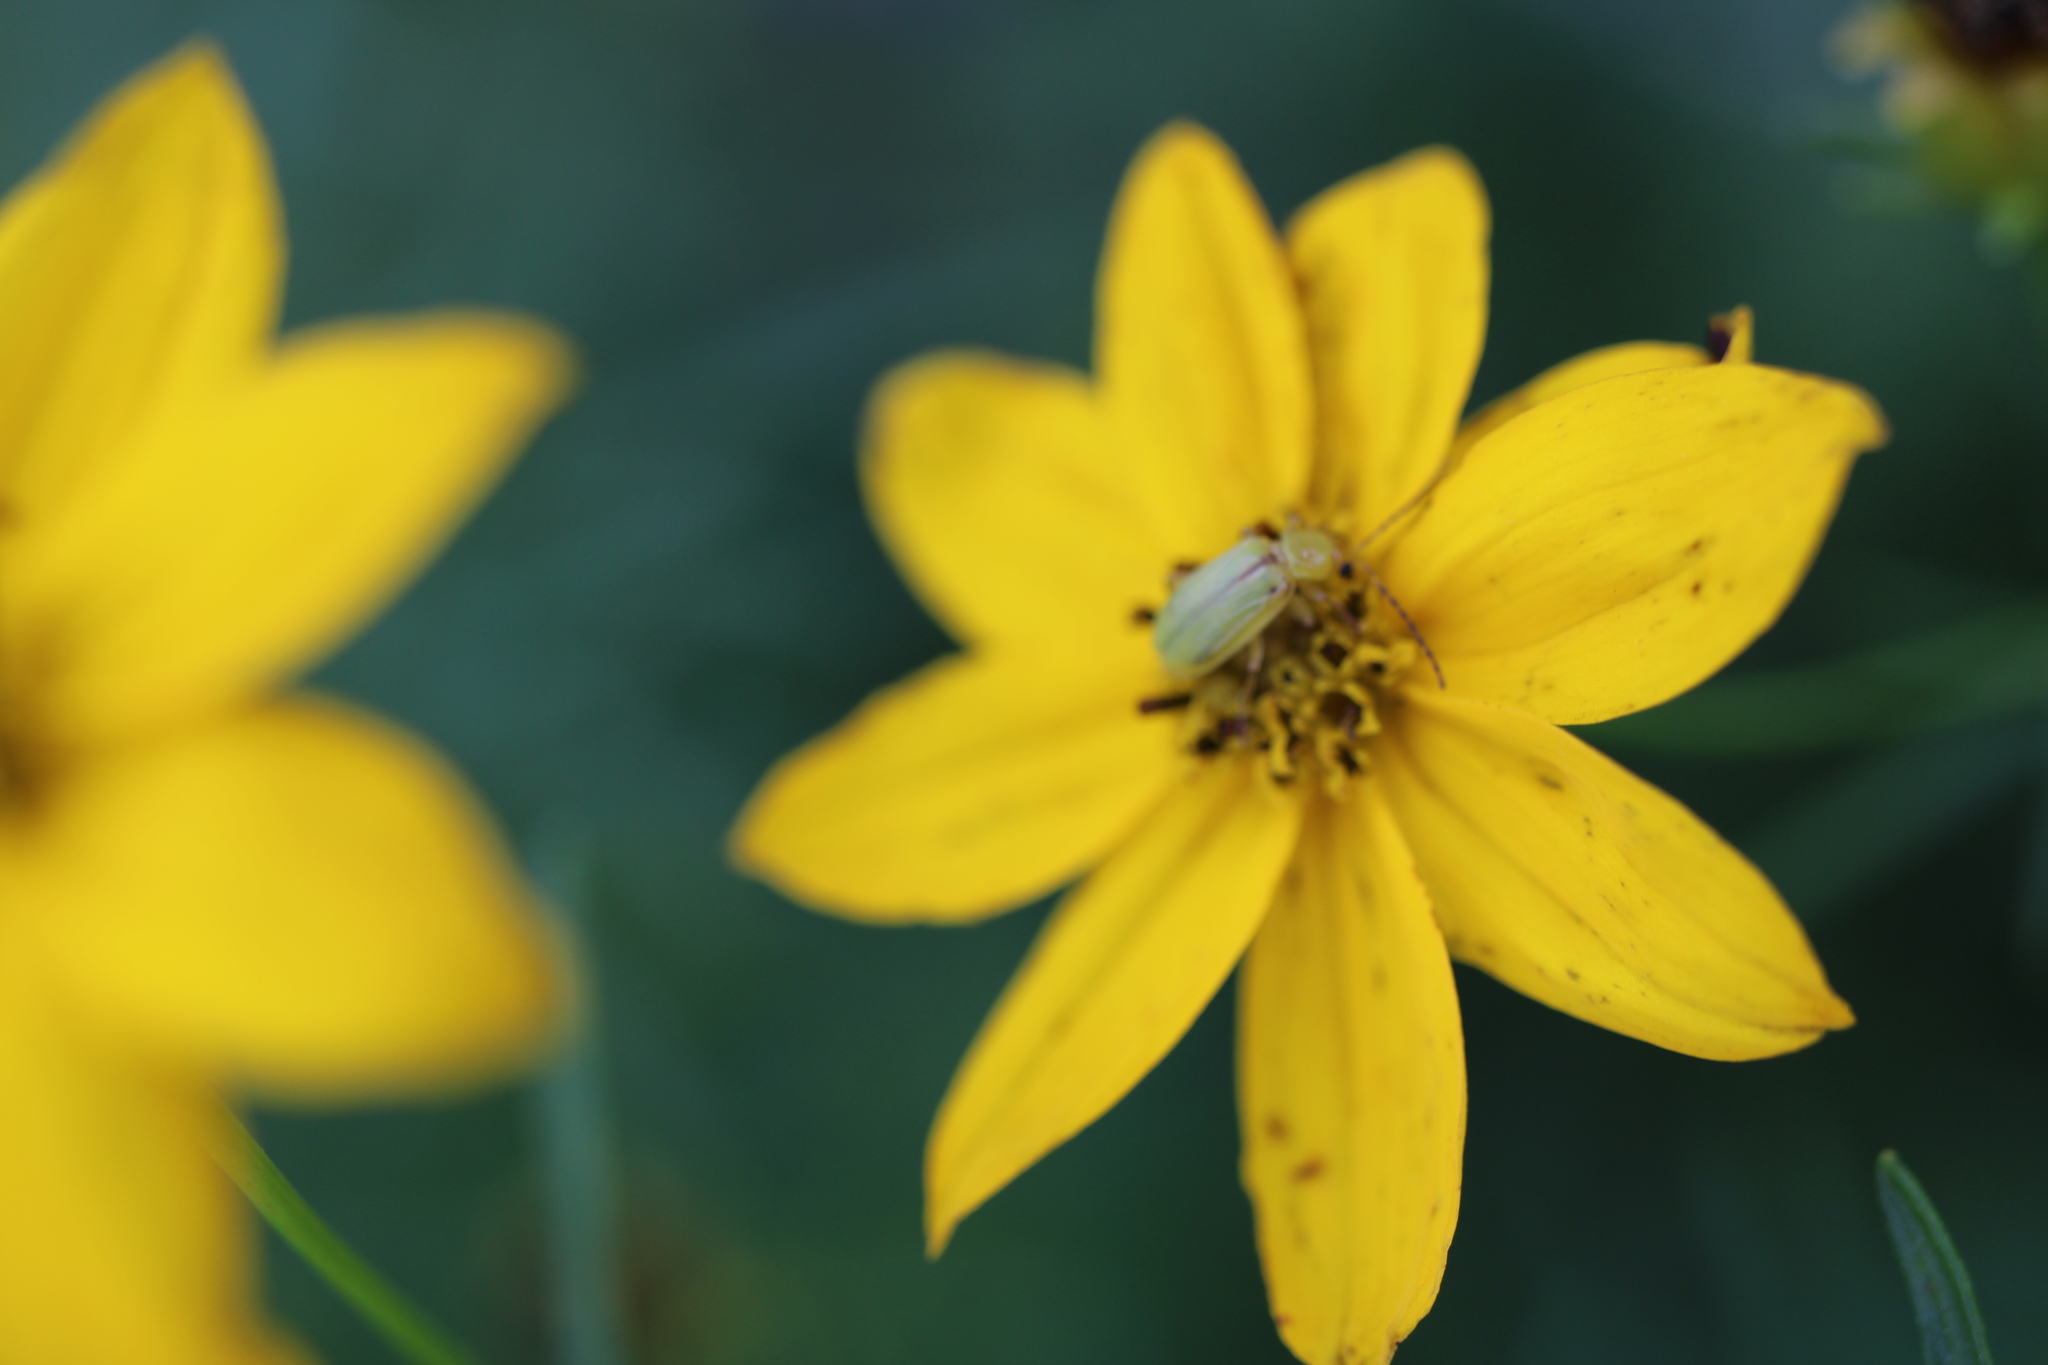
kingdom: Animalia
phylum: Arthropoda
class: Insecta
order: Coleoptera
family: Chrysomelidae
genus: Diabrotica
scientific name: Diabrotica barberi
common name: Northern corn rootworm
